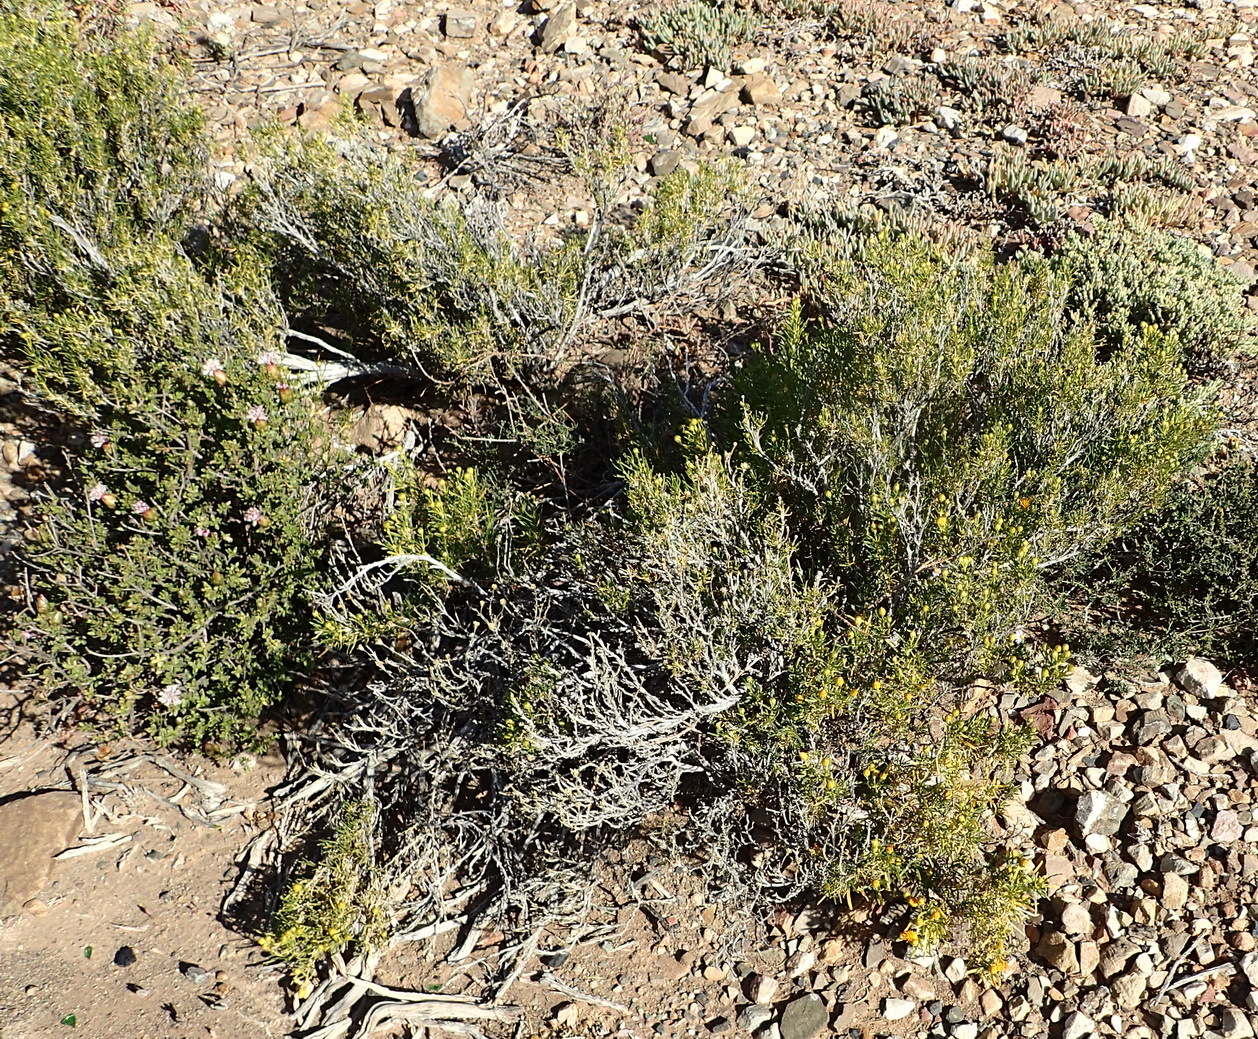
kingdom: Plantae
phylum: Tracheophyta
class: Magnoliopsida
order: Asterales
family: Asteraceae
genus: Pteronia
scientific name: Pteronia pallens
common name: Scholtzbush
